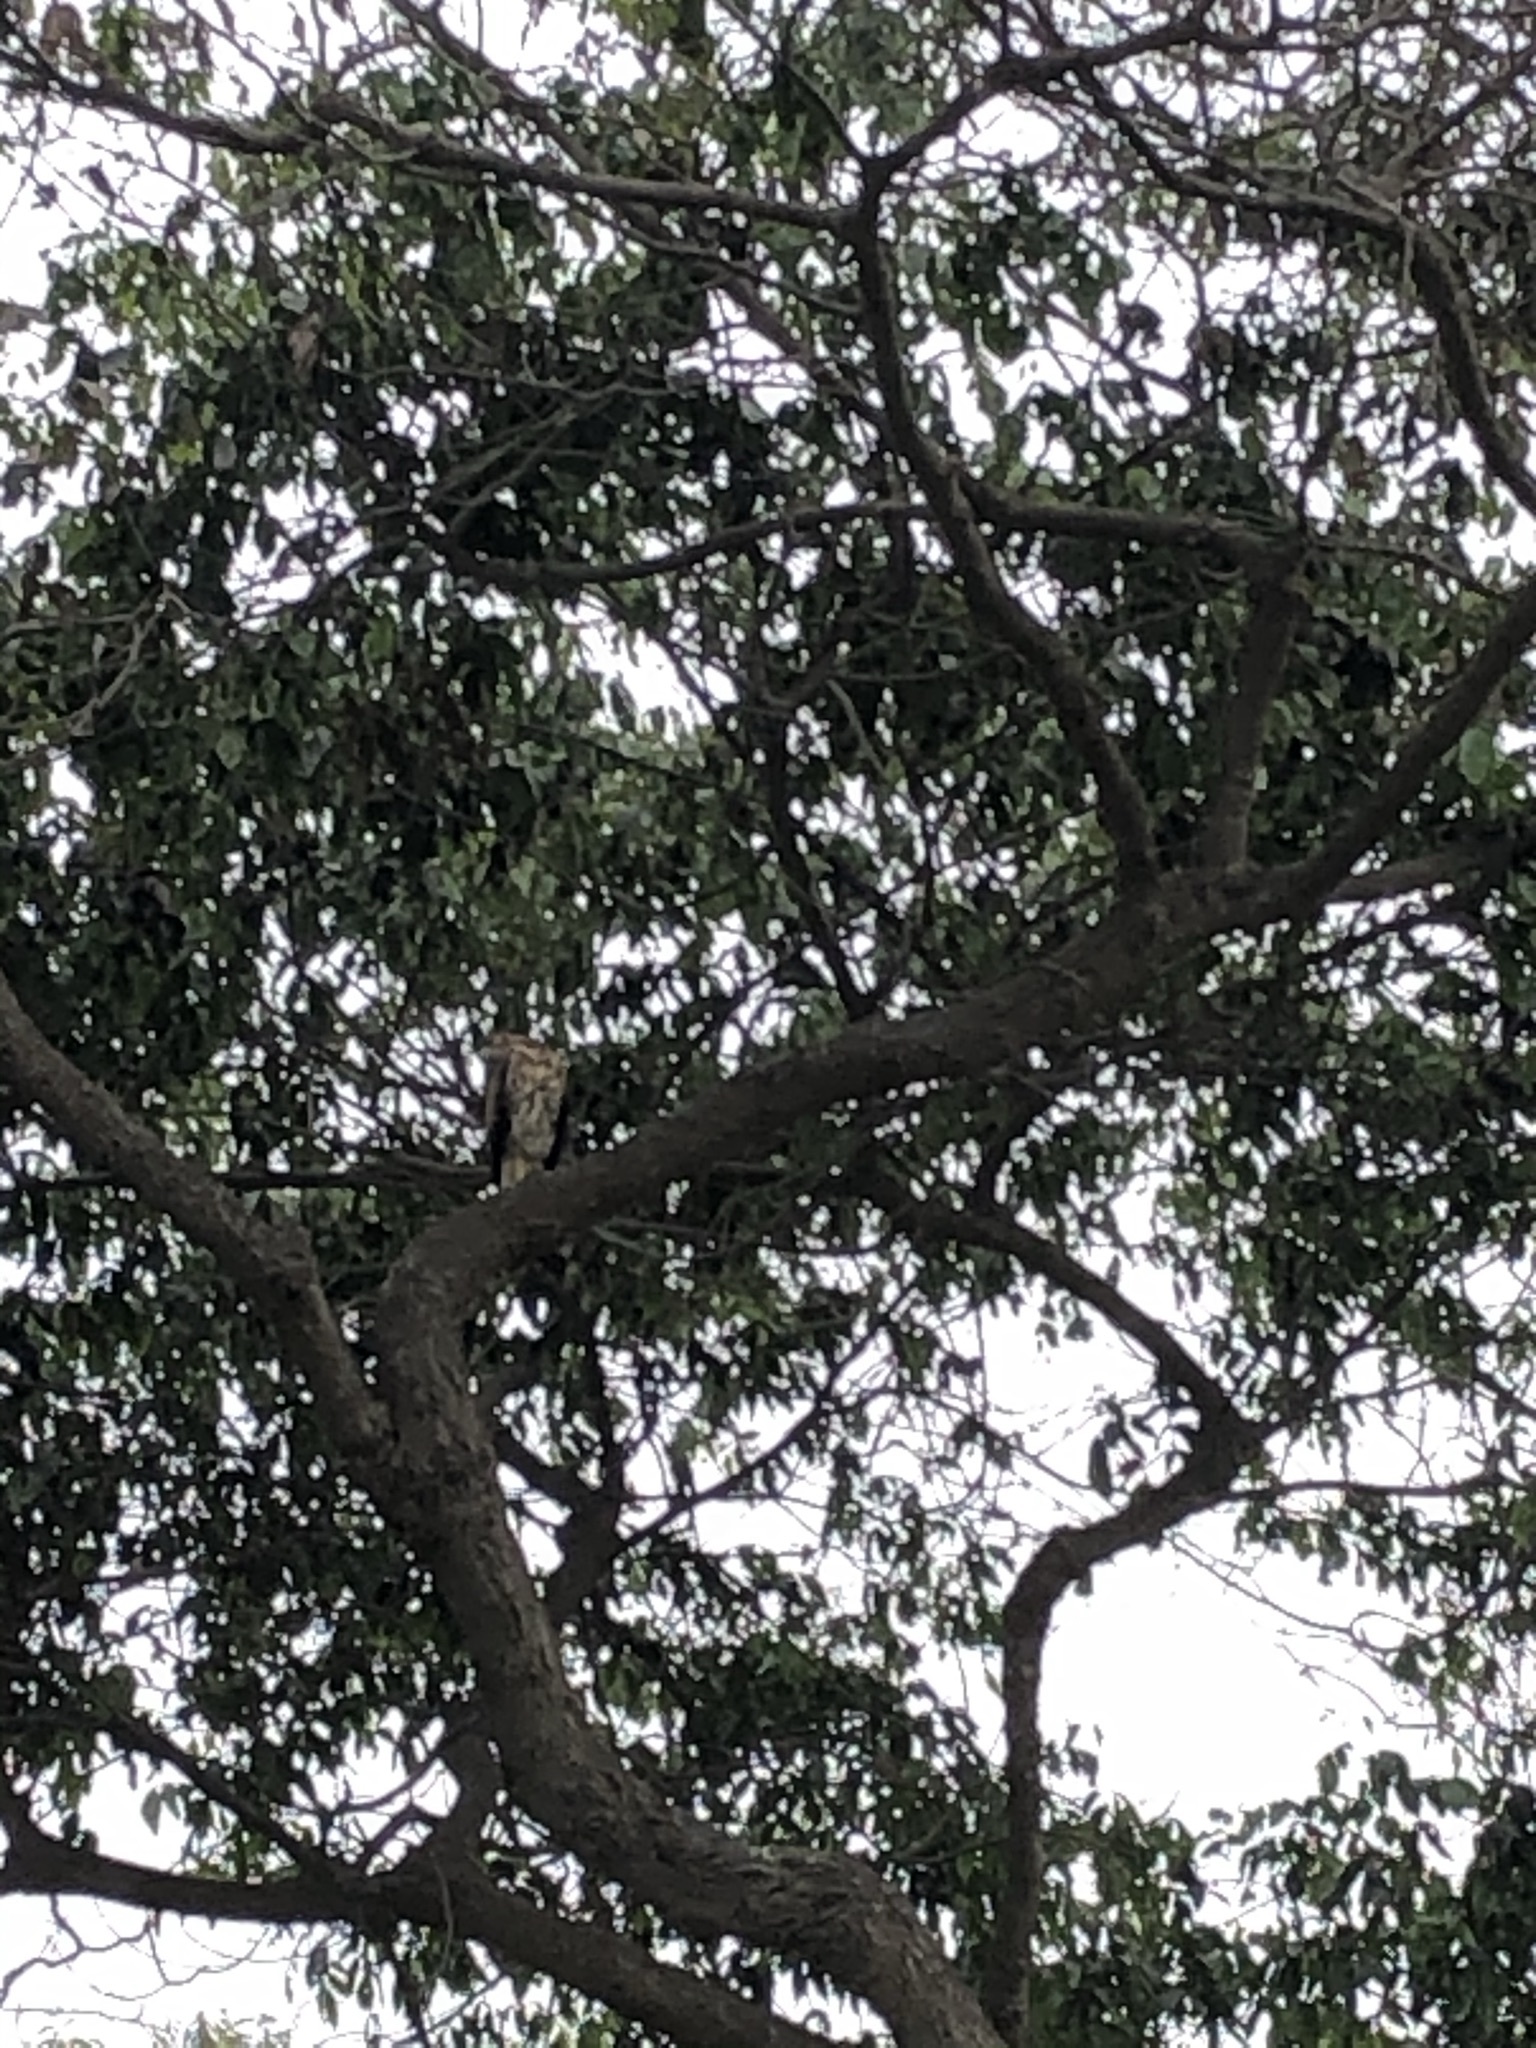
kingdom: Animalia
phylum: Chordata
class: Aves
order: Accipitriformes
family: Accipitridae
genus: Parabuteo
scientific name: Parabuteo unicinctus
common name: Harris's hawk
